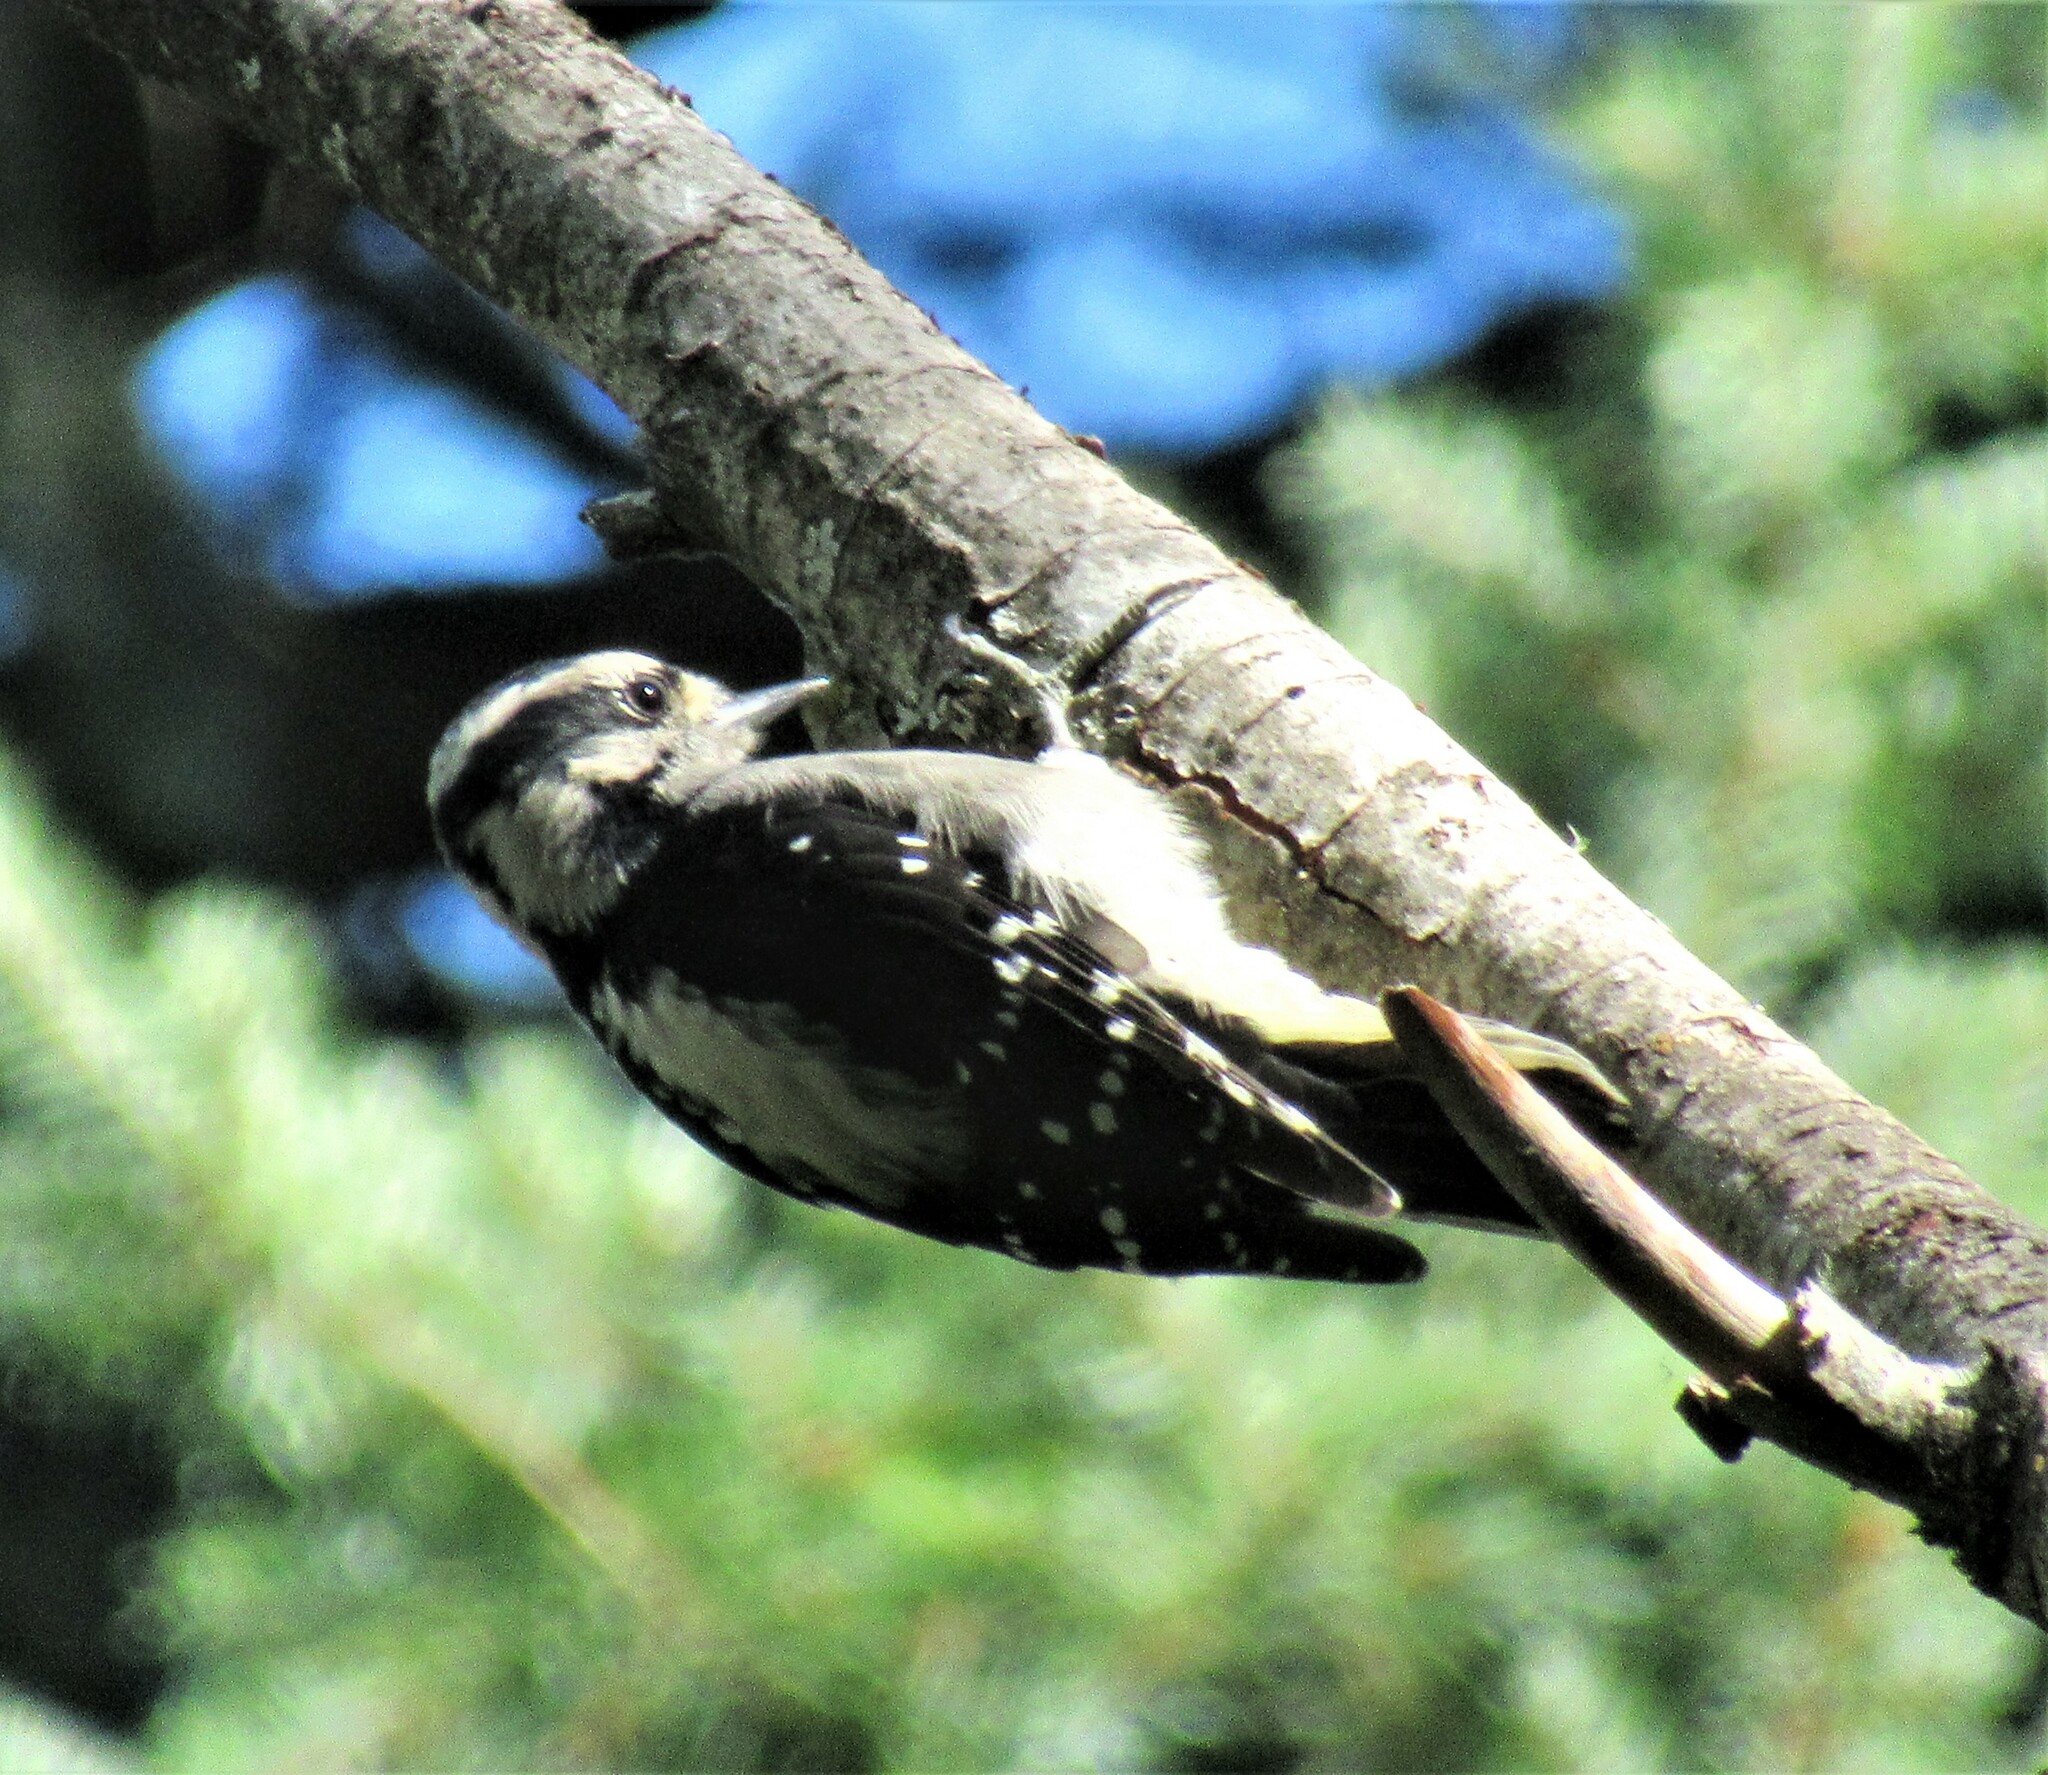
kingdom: Animalia
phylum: Chordata
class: Aves
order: Piciformes
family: Picidae
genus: Dryobates
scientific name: Dryobates pubescens
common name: Downy woodpecker
